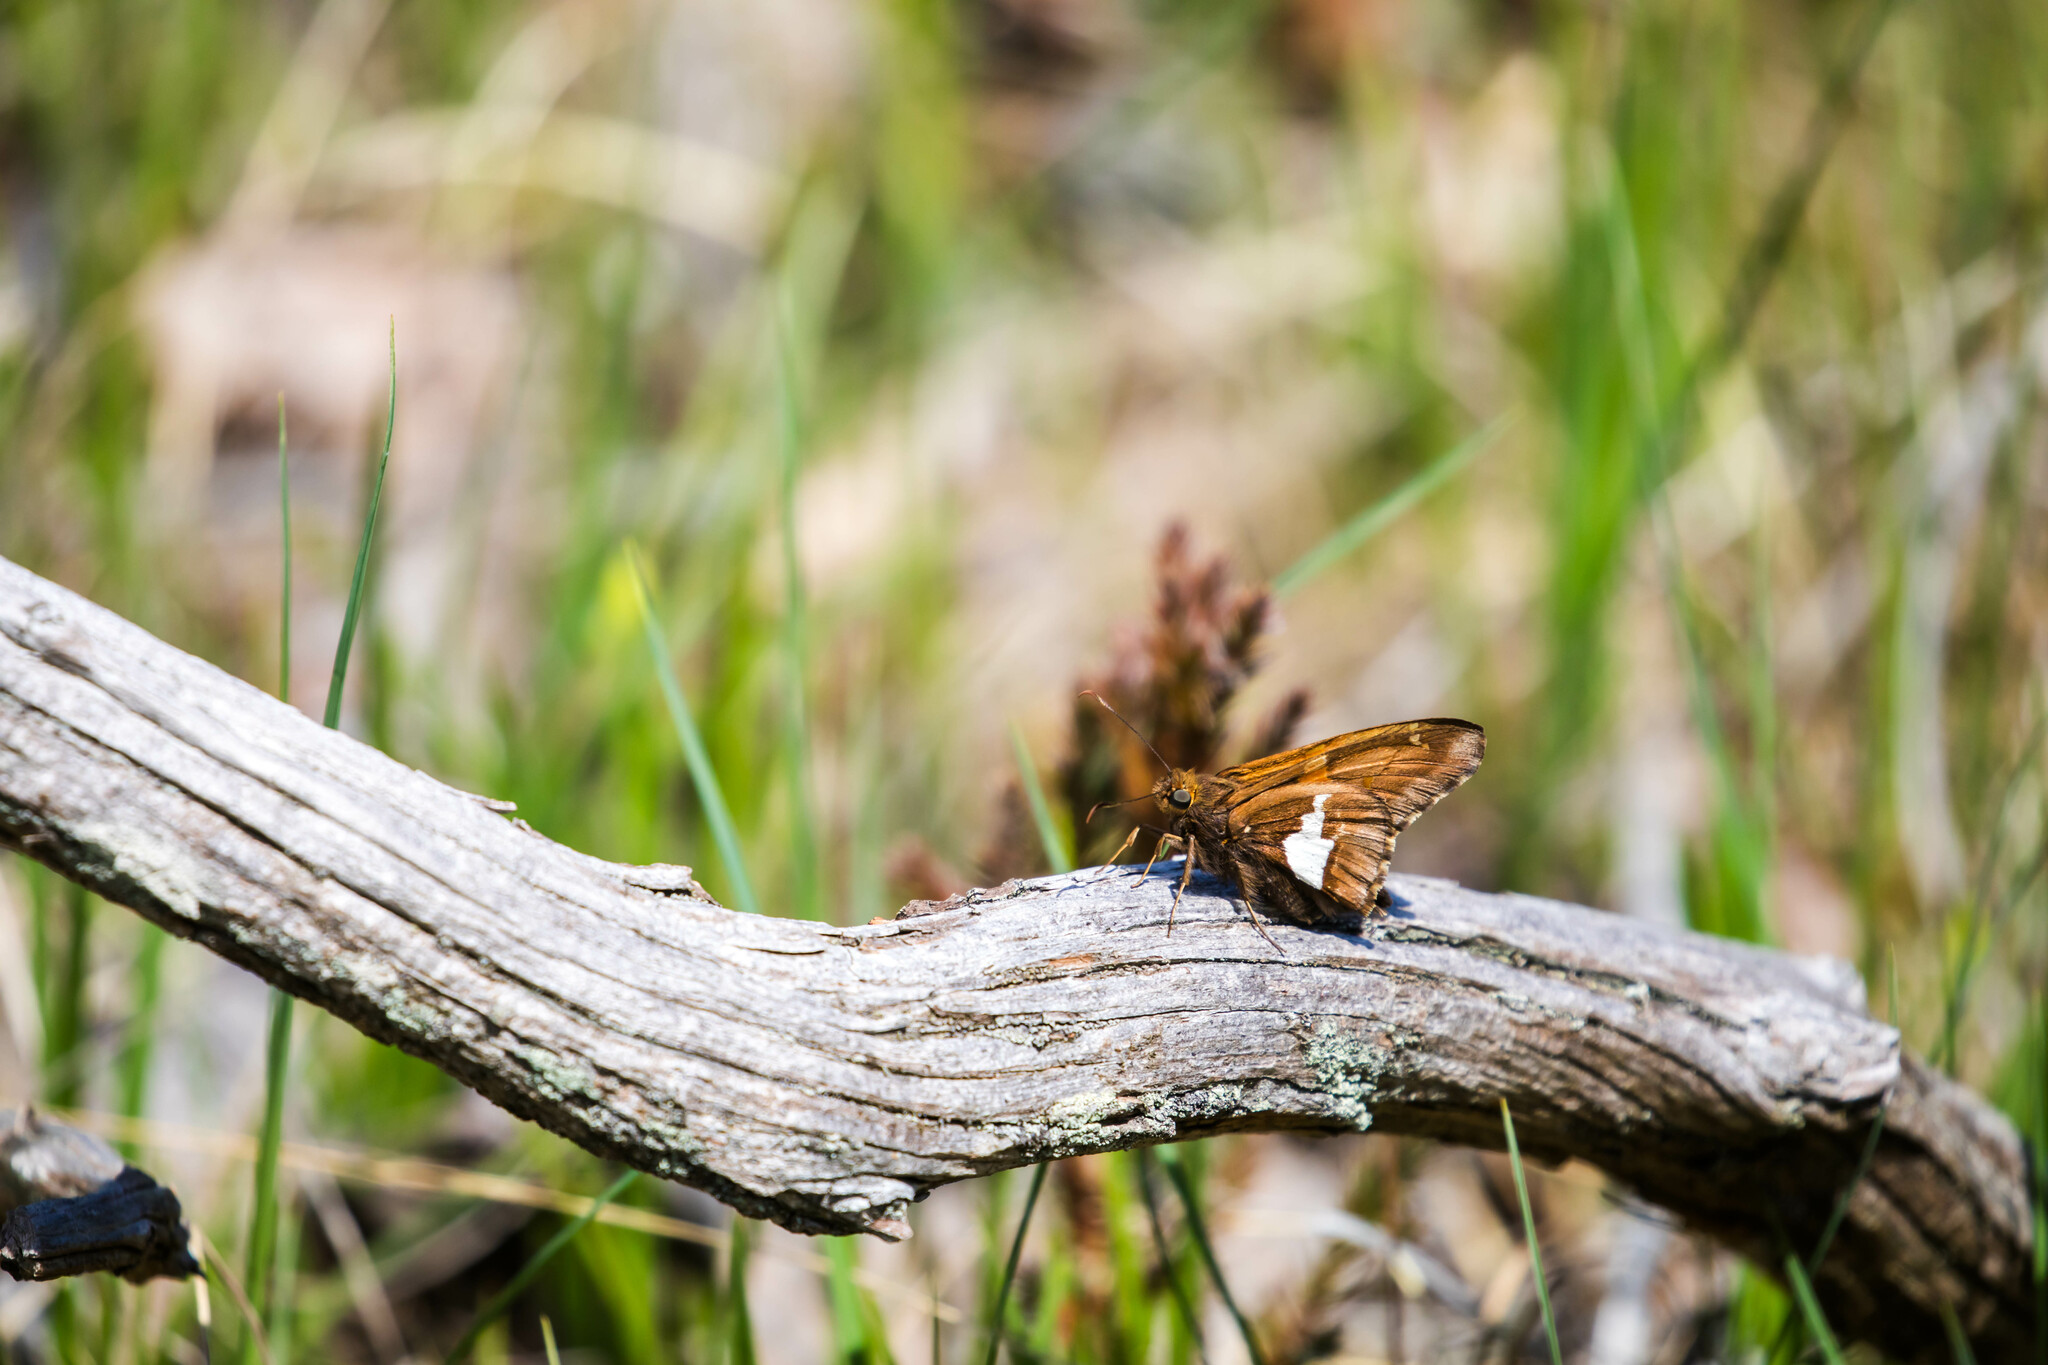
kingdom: Animalia
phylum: Arthropoda
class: Insecta
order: Lepidoptera
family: Hesperiidae
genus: Epargyreus
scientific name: Epargyreus clarus
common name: Silver-spotted skipper
